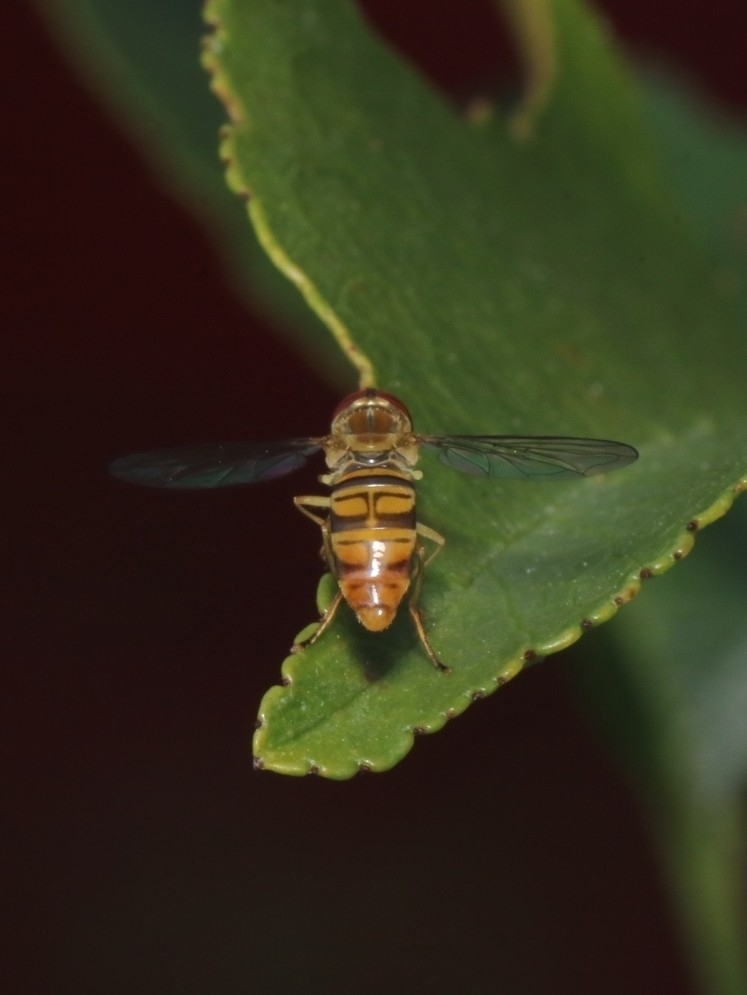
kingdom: Animalia
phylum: Arthropoda
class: Insecta
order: Diptera
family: Syrphidae
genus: Toxomerus
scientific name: Toxomerus politus
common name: Maize calligrapher
